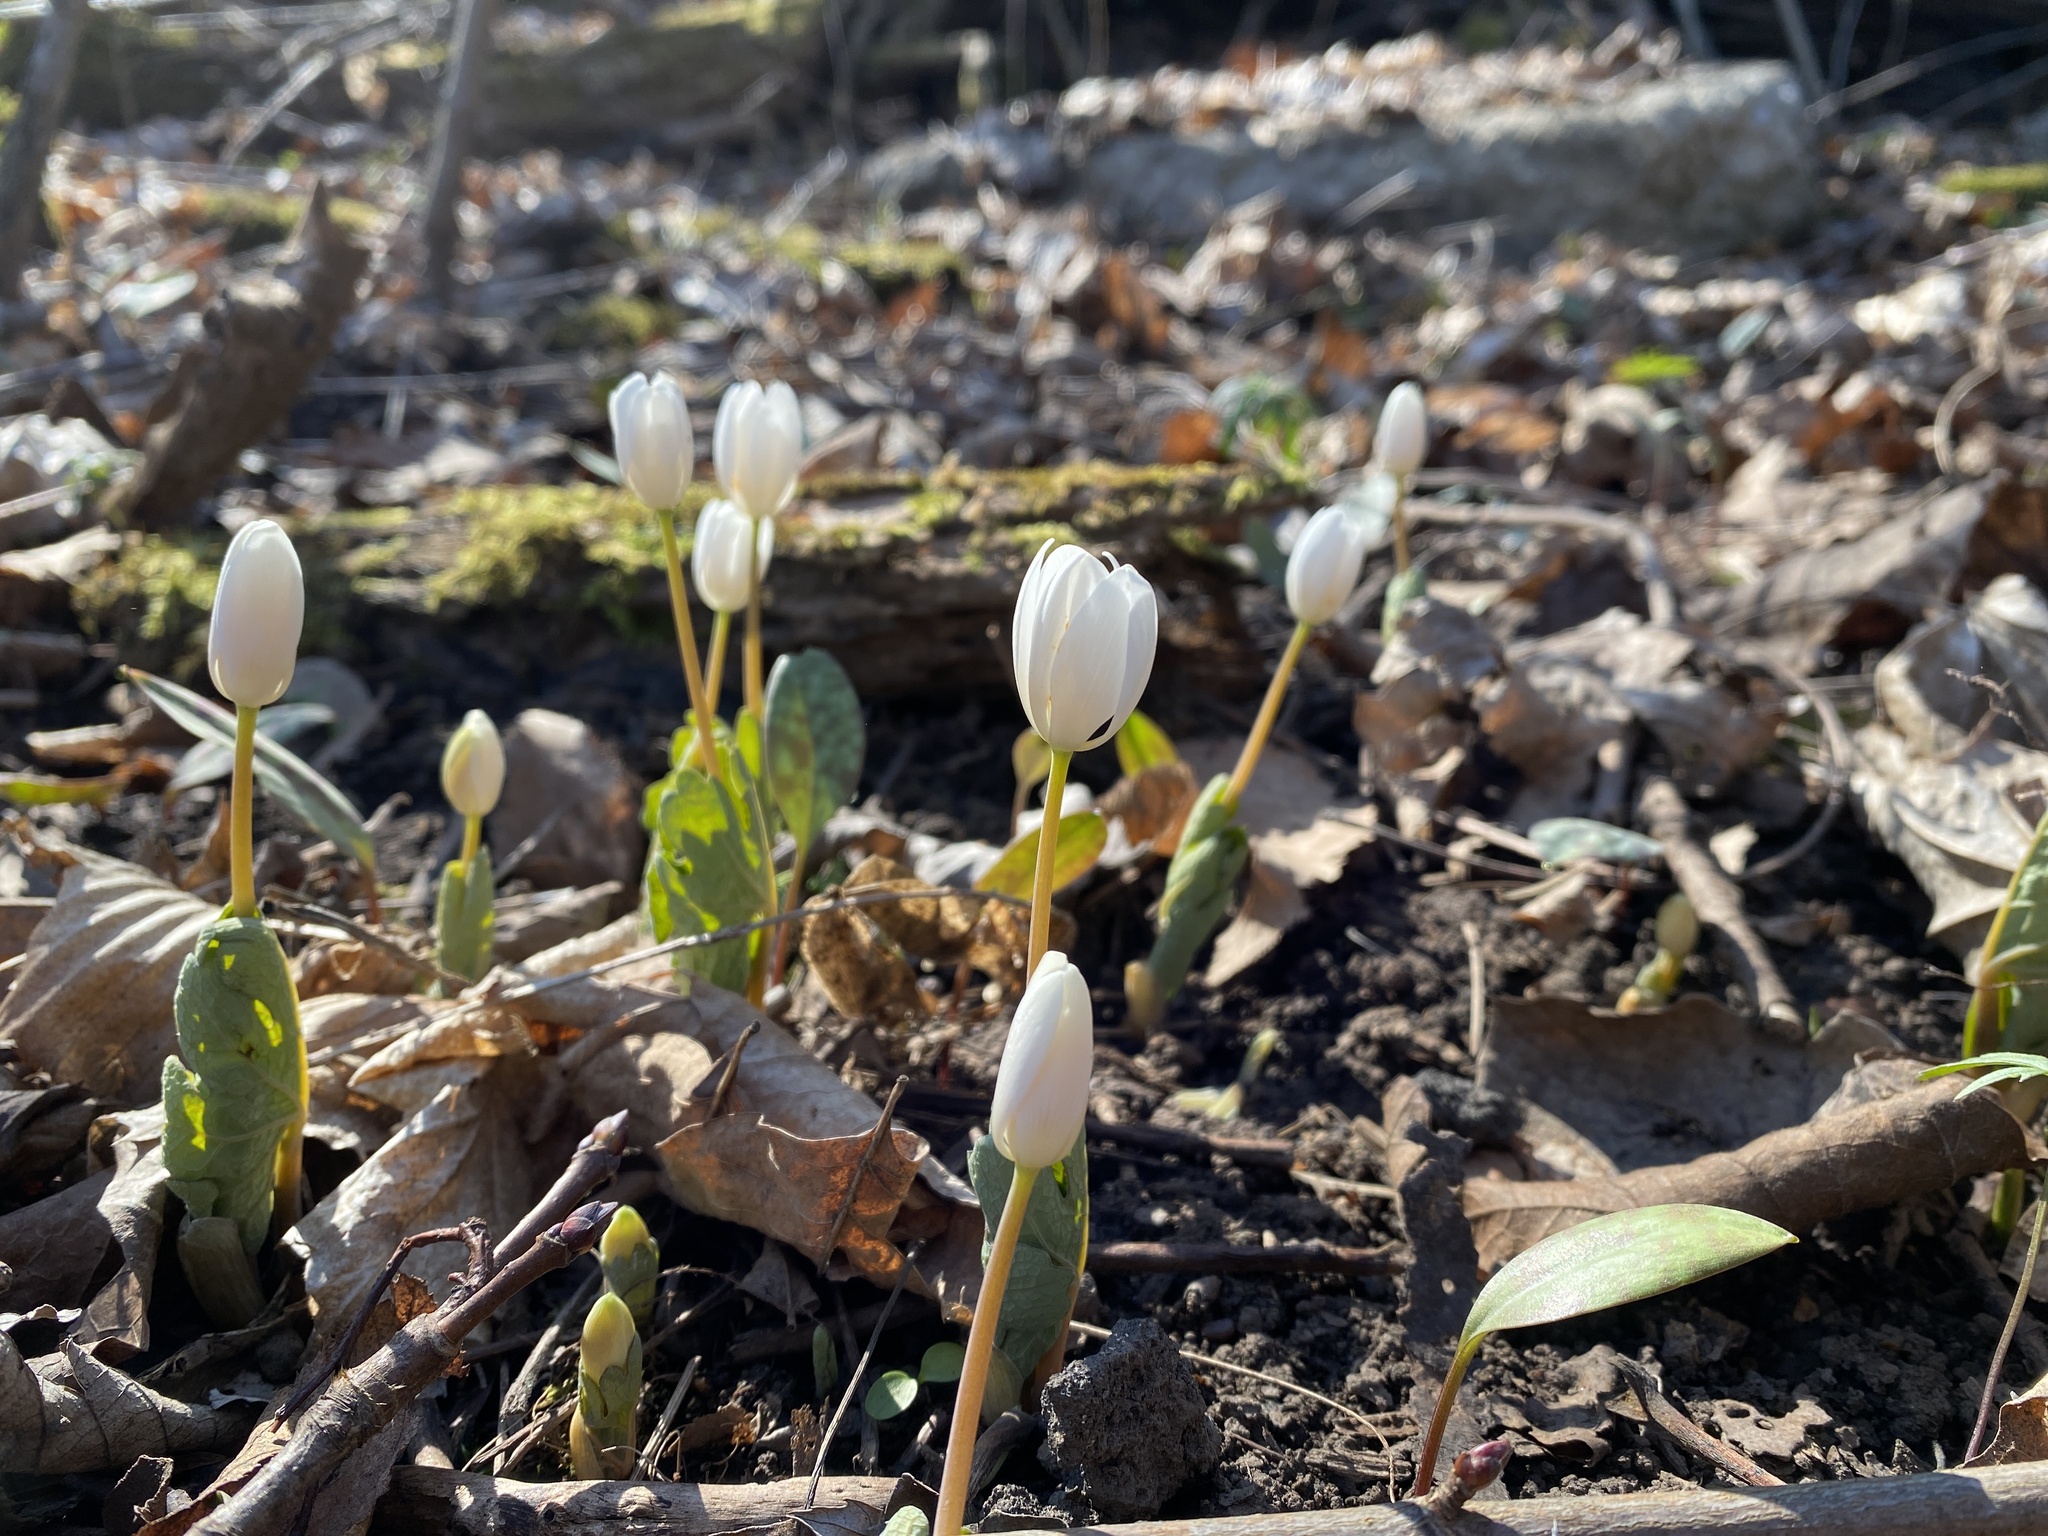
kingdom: Plantae
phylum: Tracheophyta
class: Magnoliopsida
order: Ranunculales
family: Papaveraceae
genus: Sanguinaria
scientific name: Sanguinaria canadensis
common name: Bloodroot
